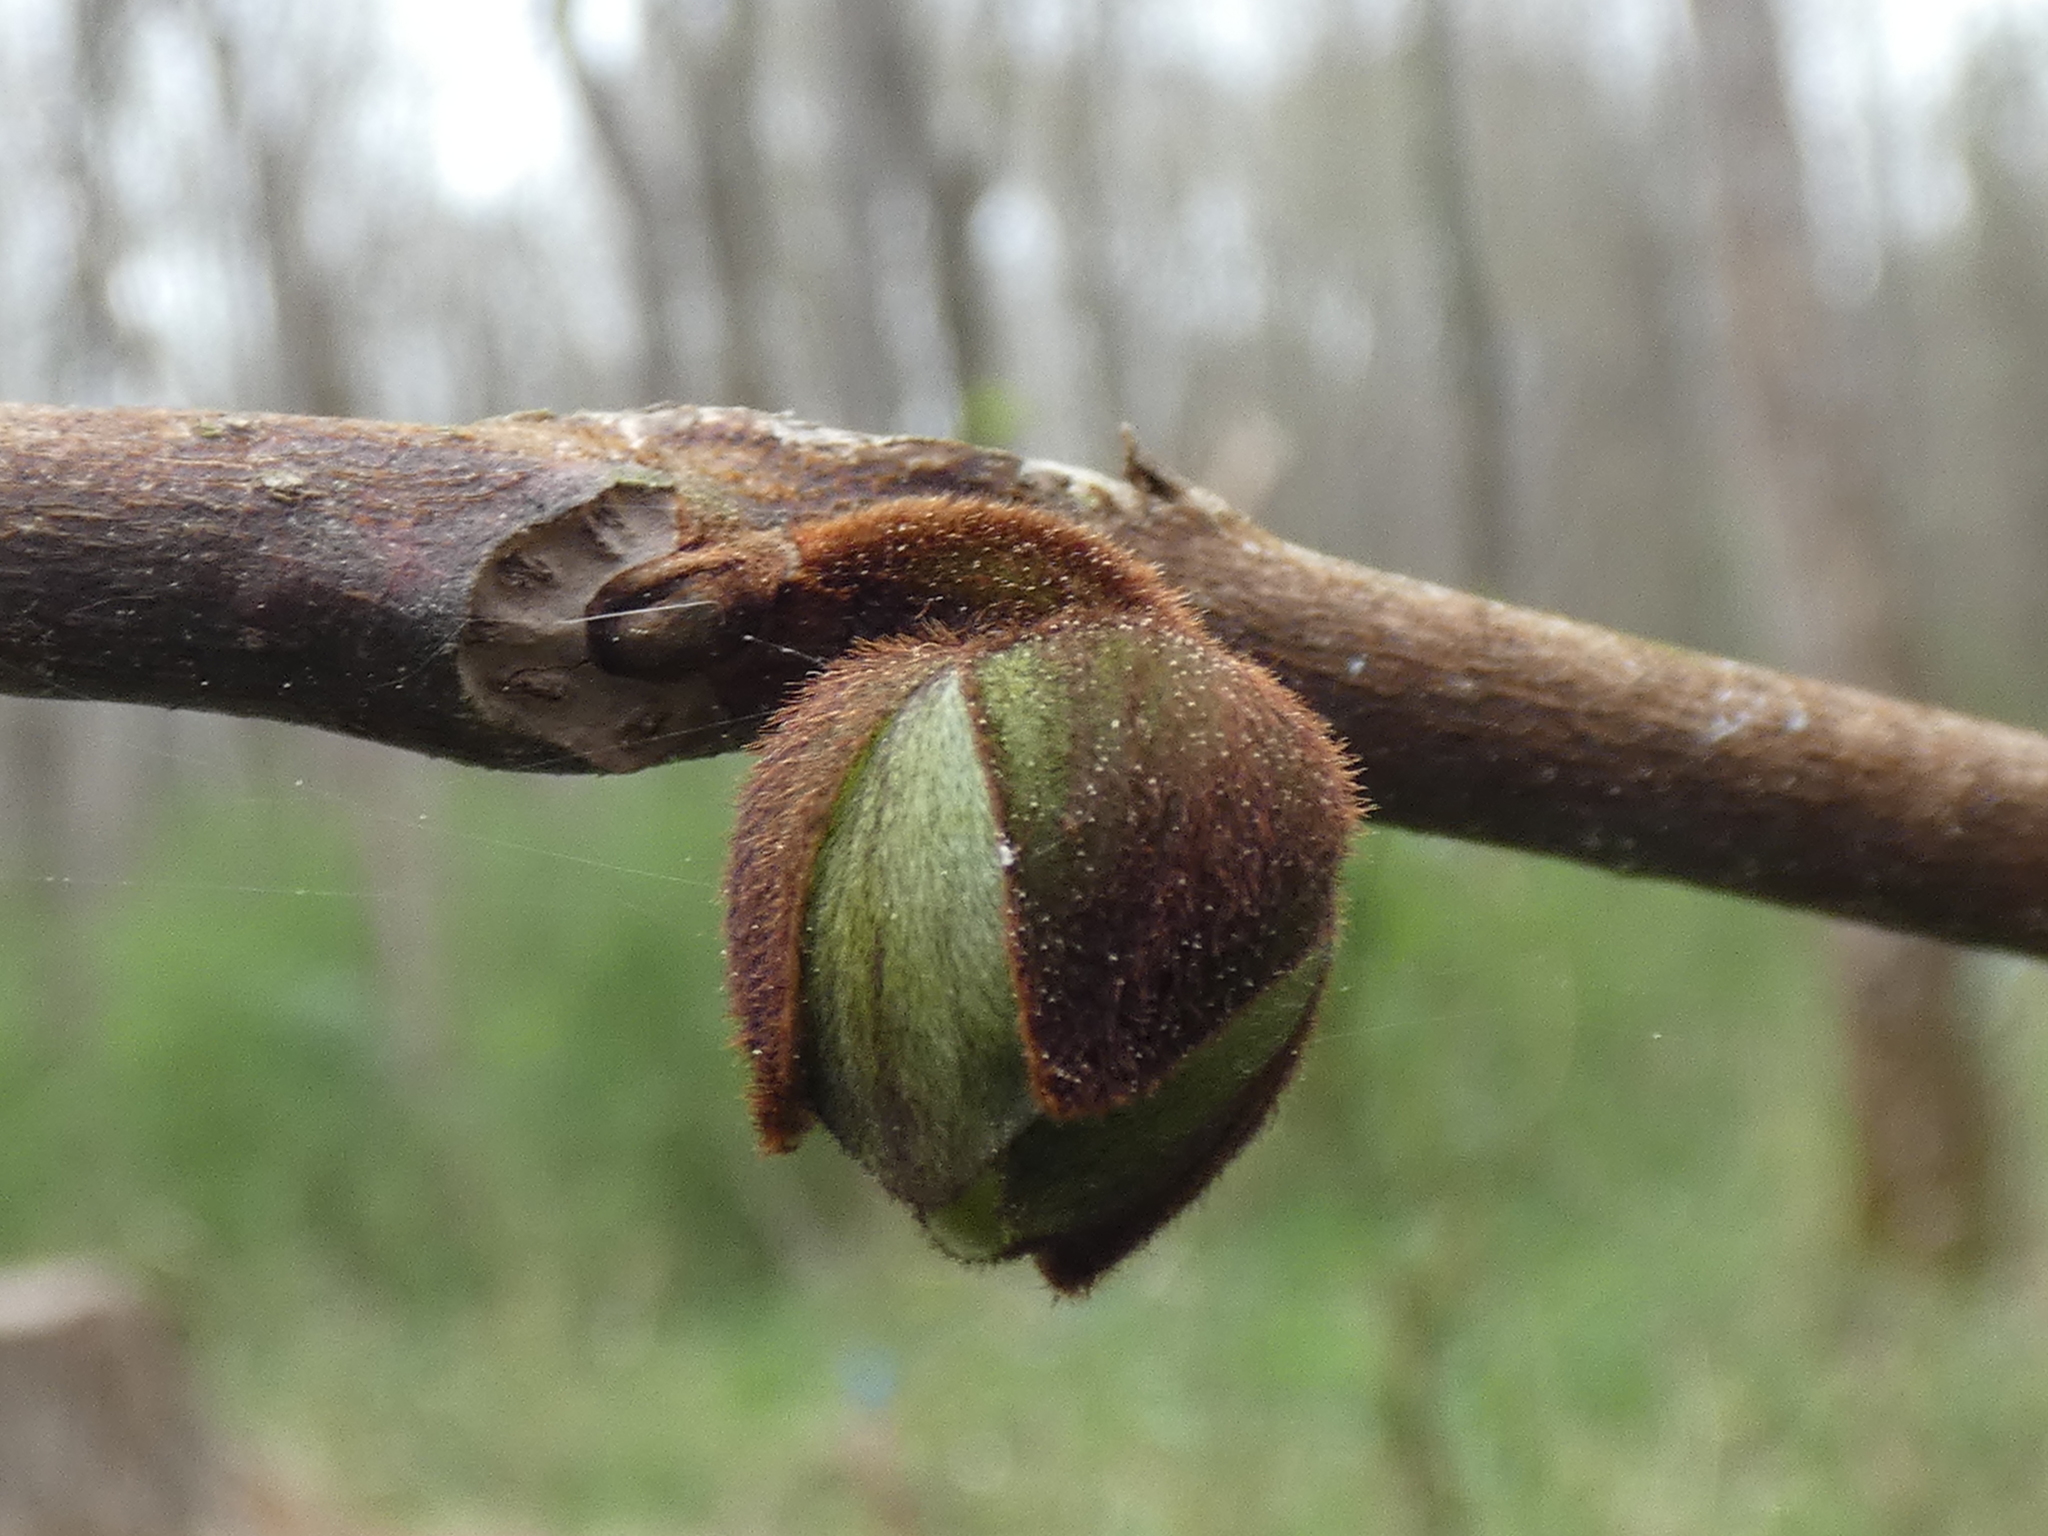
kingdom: Plantae
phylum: Tracheophyta
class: Magnoliopsida
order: Magnoliales
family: Annonaceae
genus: Asimina
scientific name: Asimina triloba
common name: Dog-banana
